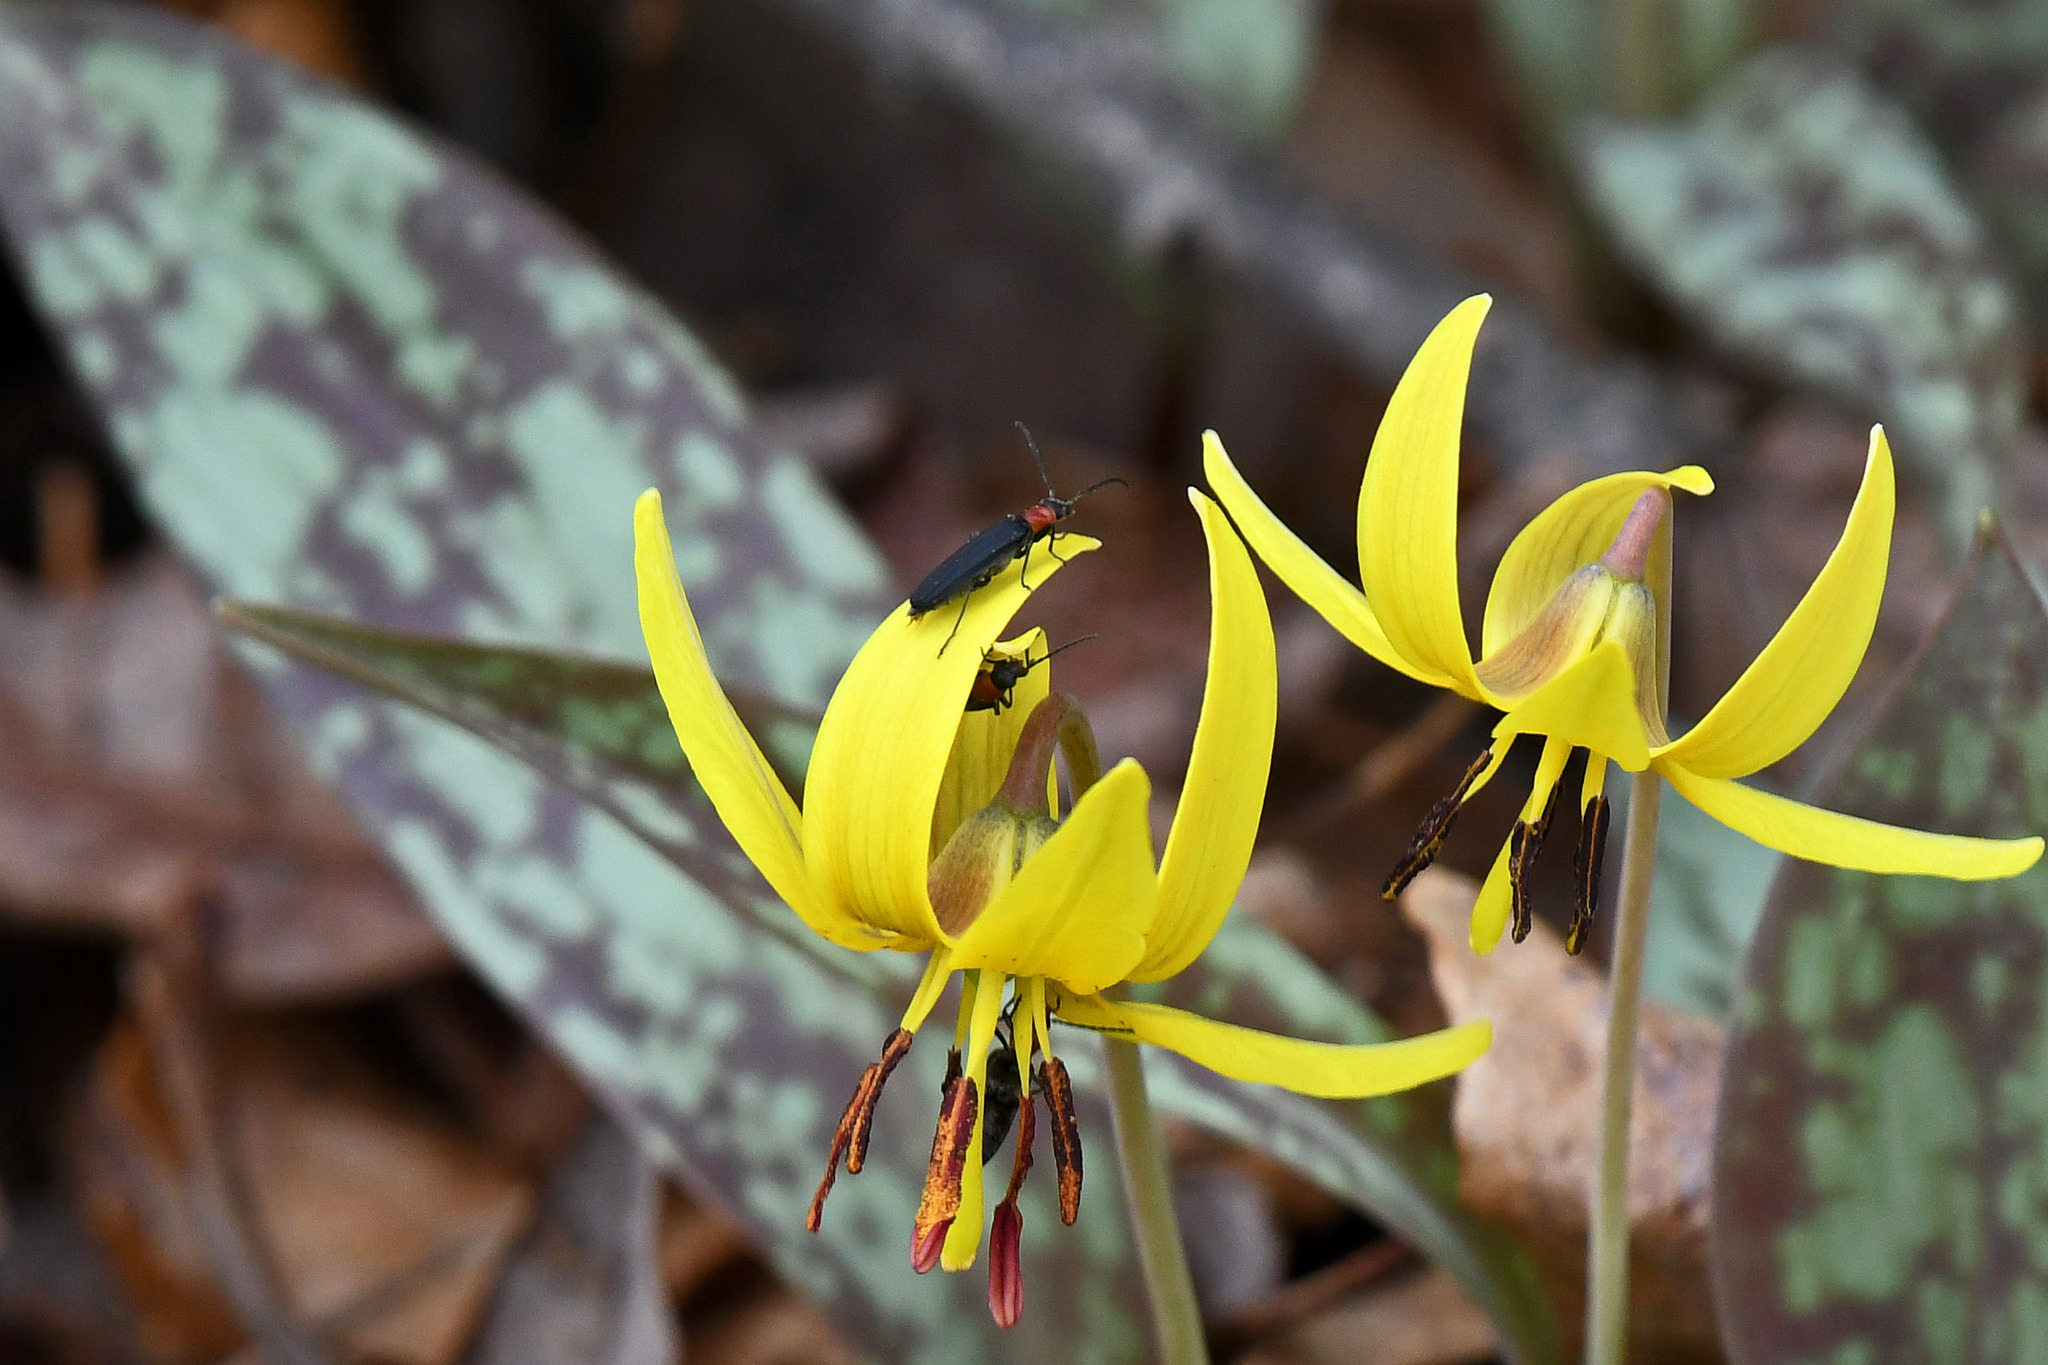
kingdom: Animalia
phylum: Arthropoda
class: Insecta
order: Coleoptera
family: Oedemeridae
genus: Ischnomera
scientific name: Ischnomera
